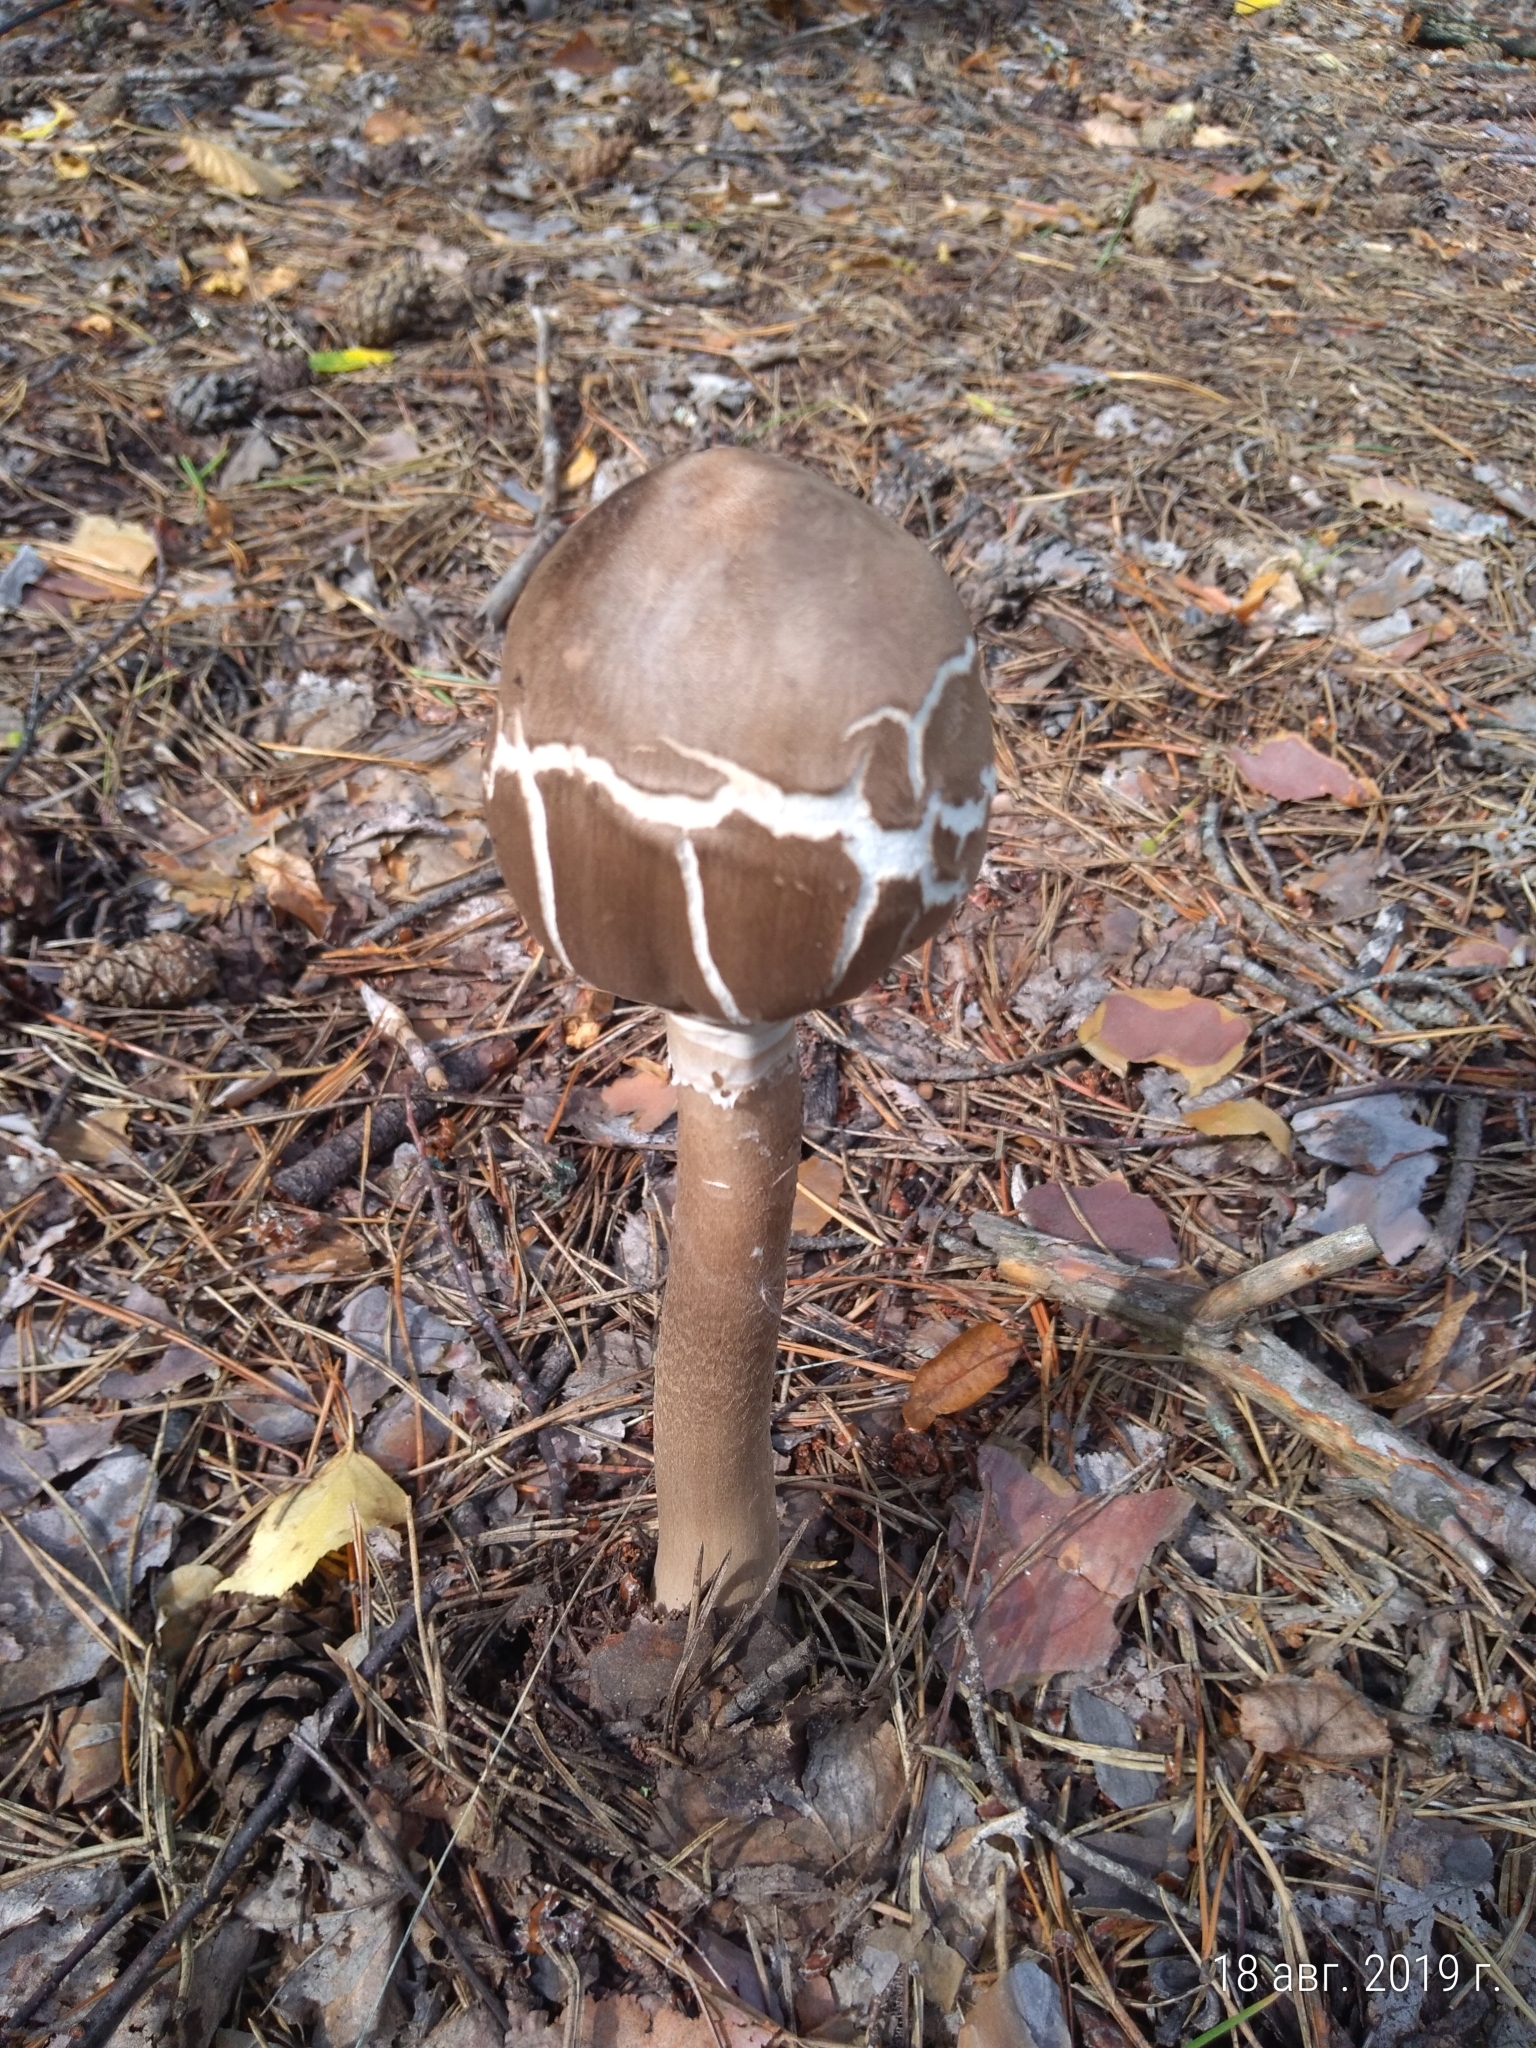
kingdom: Fungi
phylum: Basidiomycota
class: Agaricomycetes
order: Agaricales
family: Agaricaceae
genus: Macrolepiota
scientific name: Macrolepiota procera
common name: Parasol
